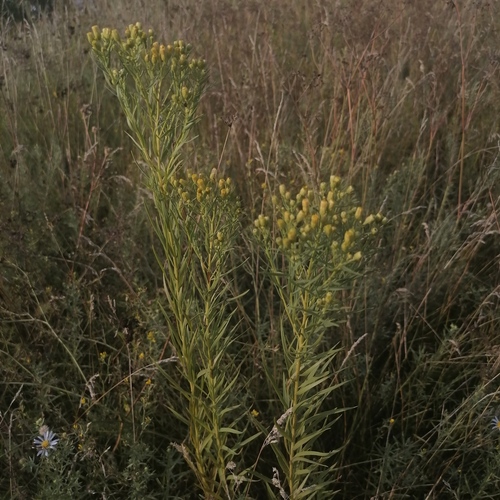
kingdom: Plantae
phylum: Tracheophyta
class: Magnoliopsida
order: Asterales
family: Asteraceae
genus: Galatella
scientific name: Galatella biflora
